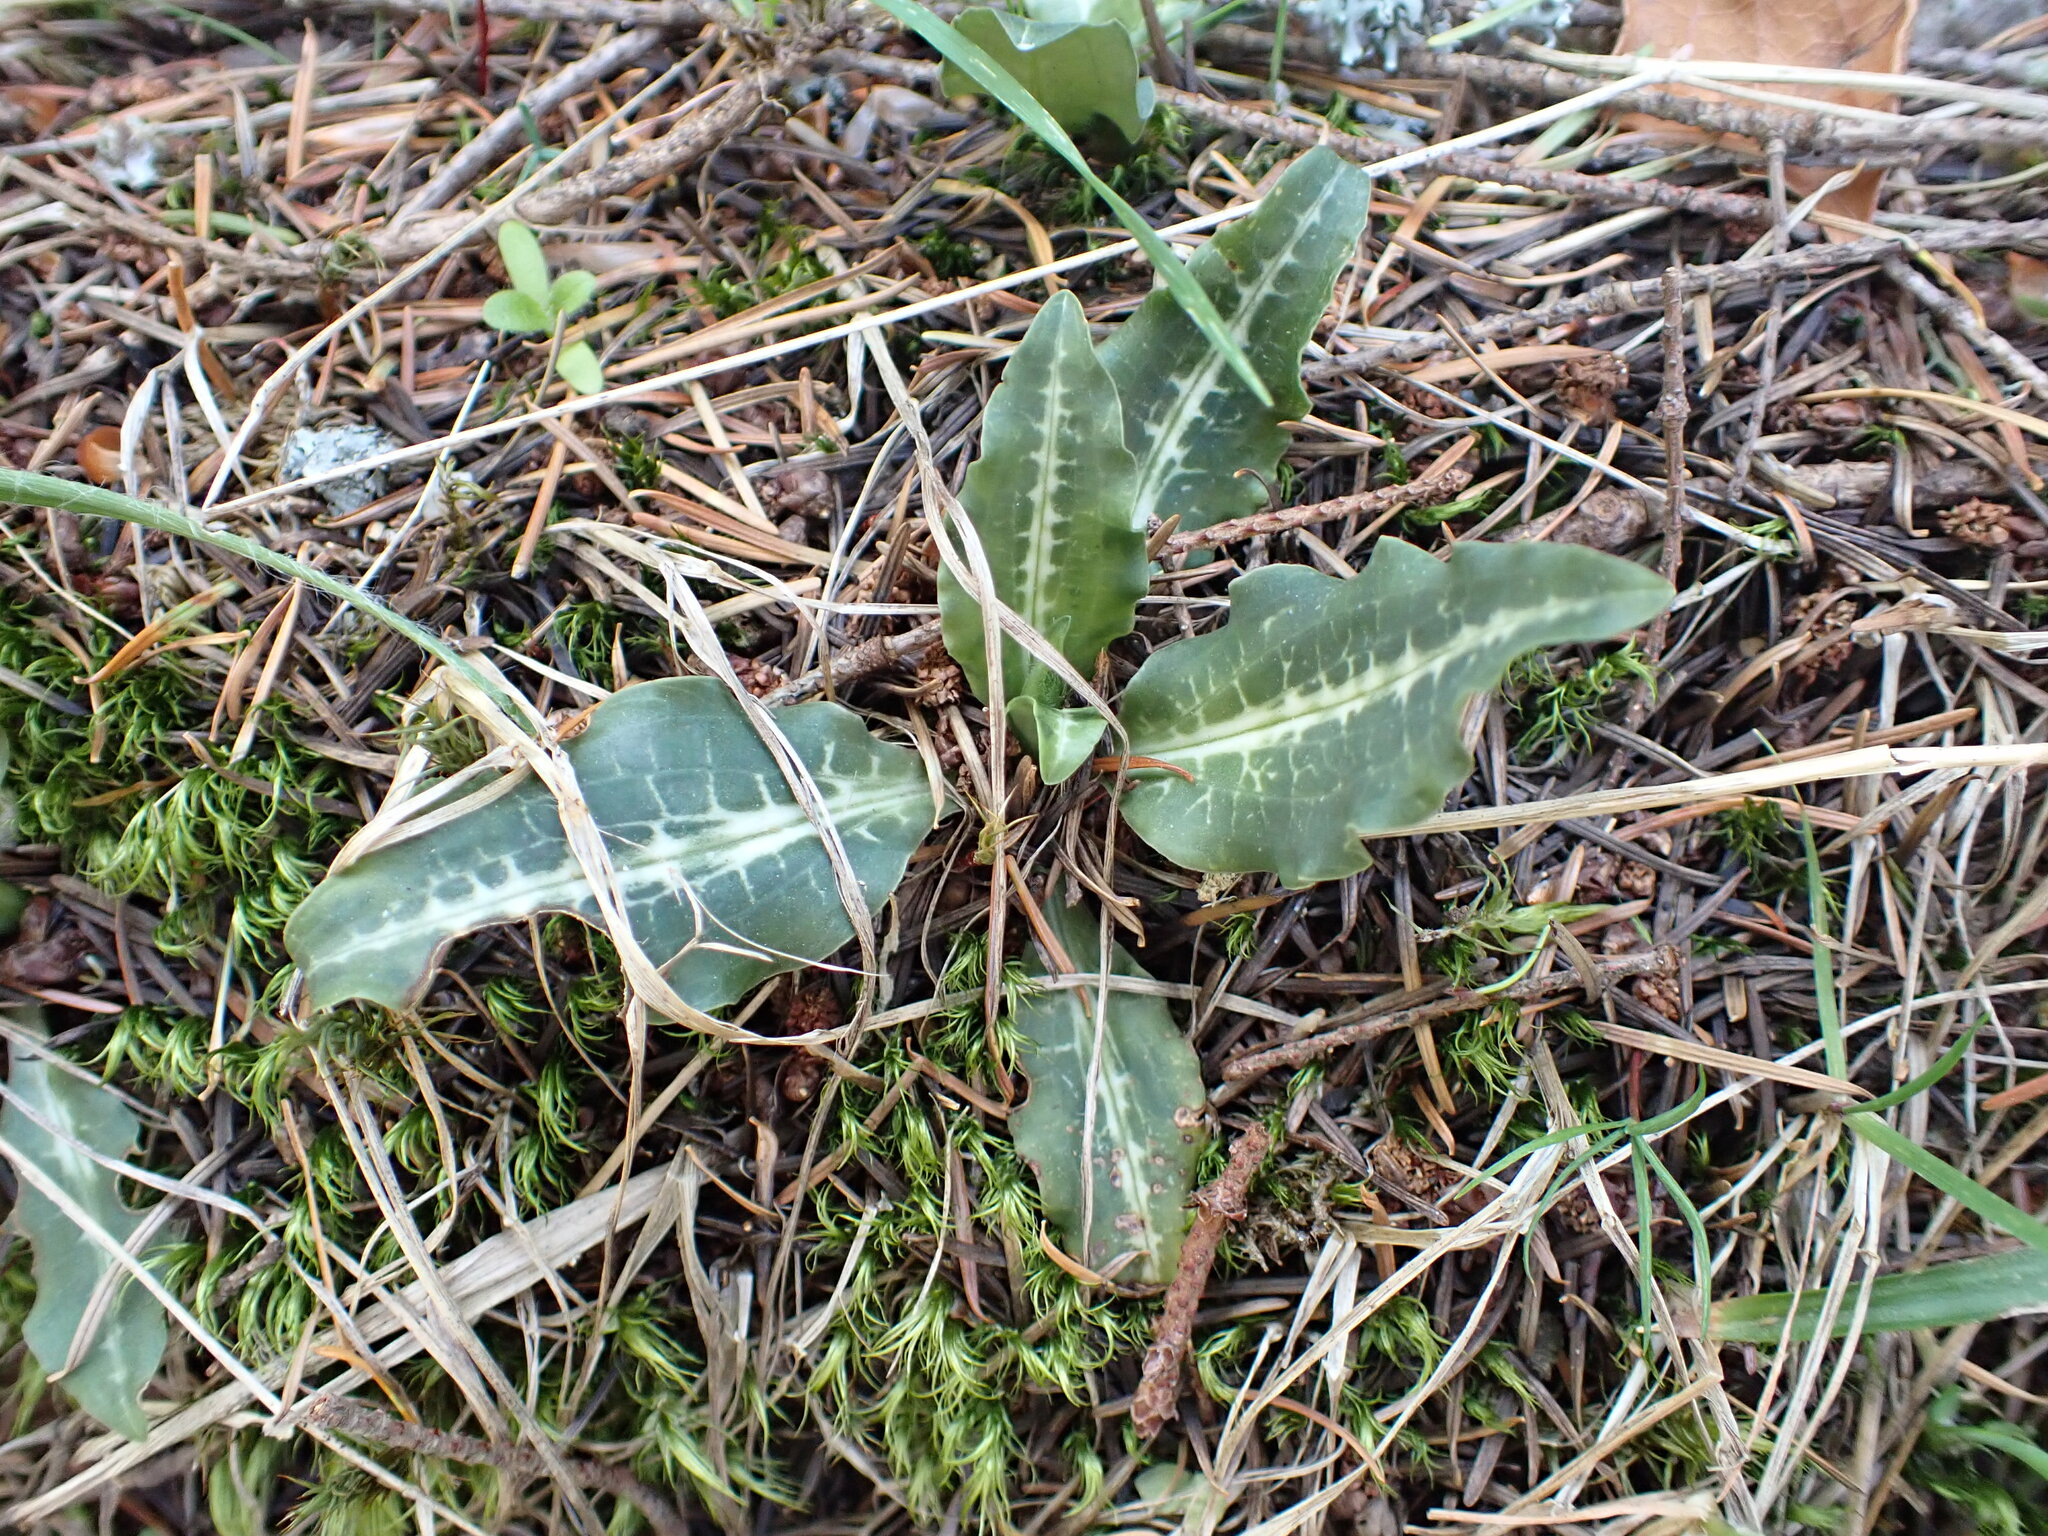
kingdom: Plantae
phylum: Tracheophyta
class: Liliopsida
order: Asparagales
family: Orchidaceae
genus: Goodyera
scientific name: Goodyera oblongifolia
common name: Giant rattlesnake-plantain
